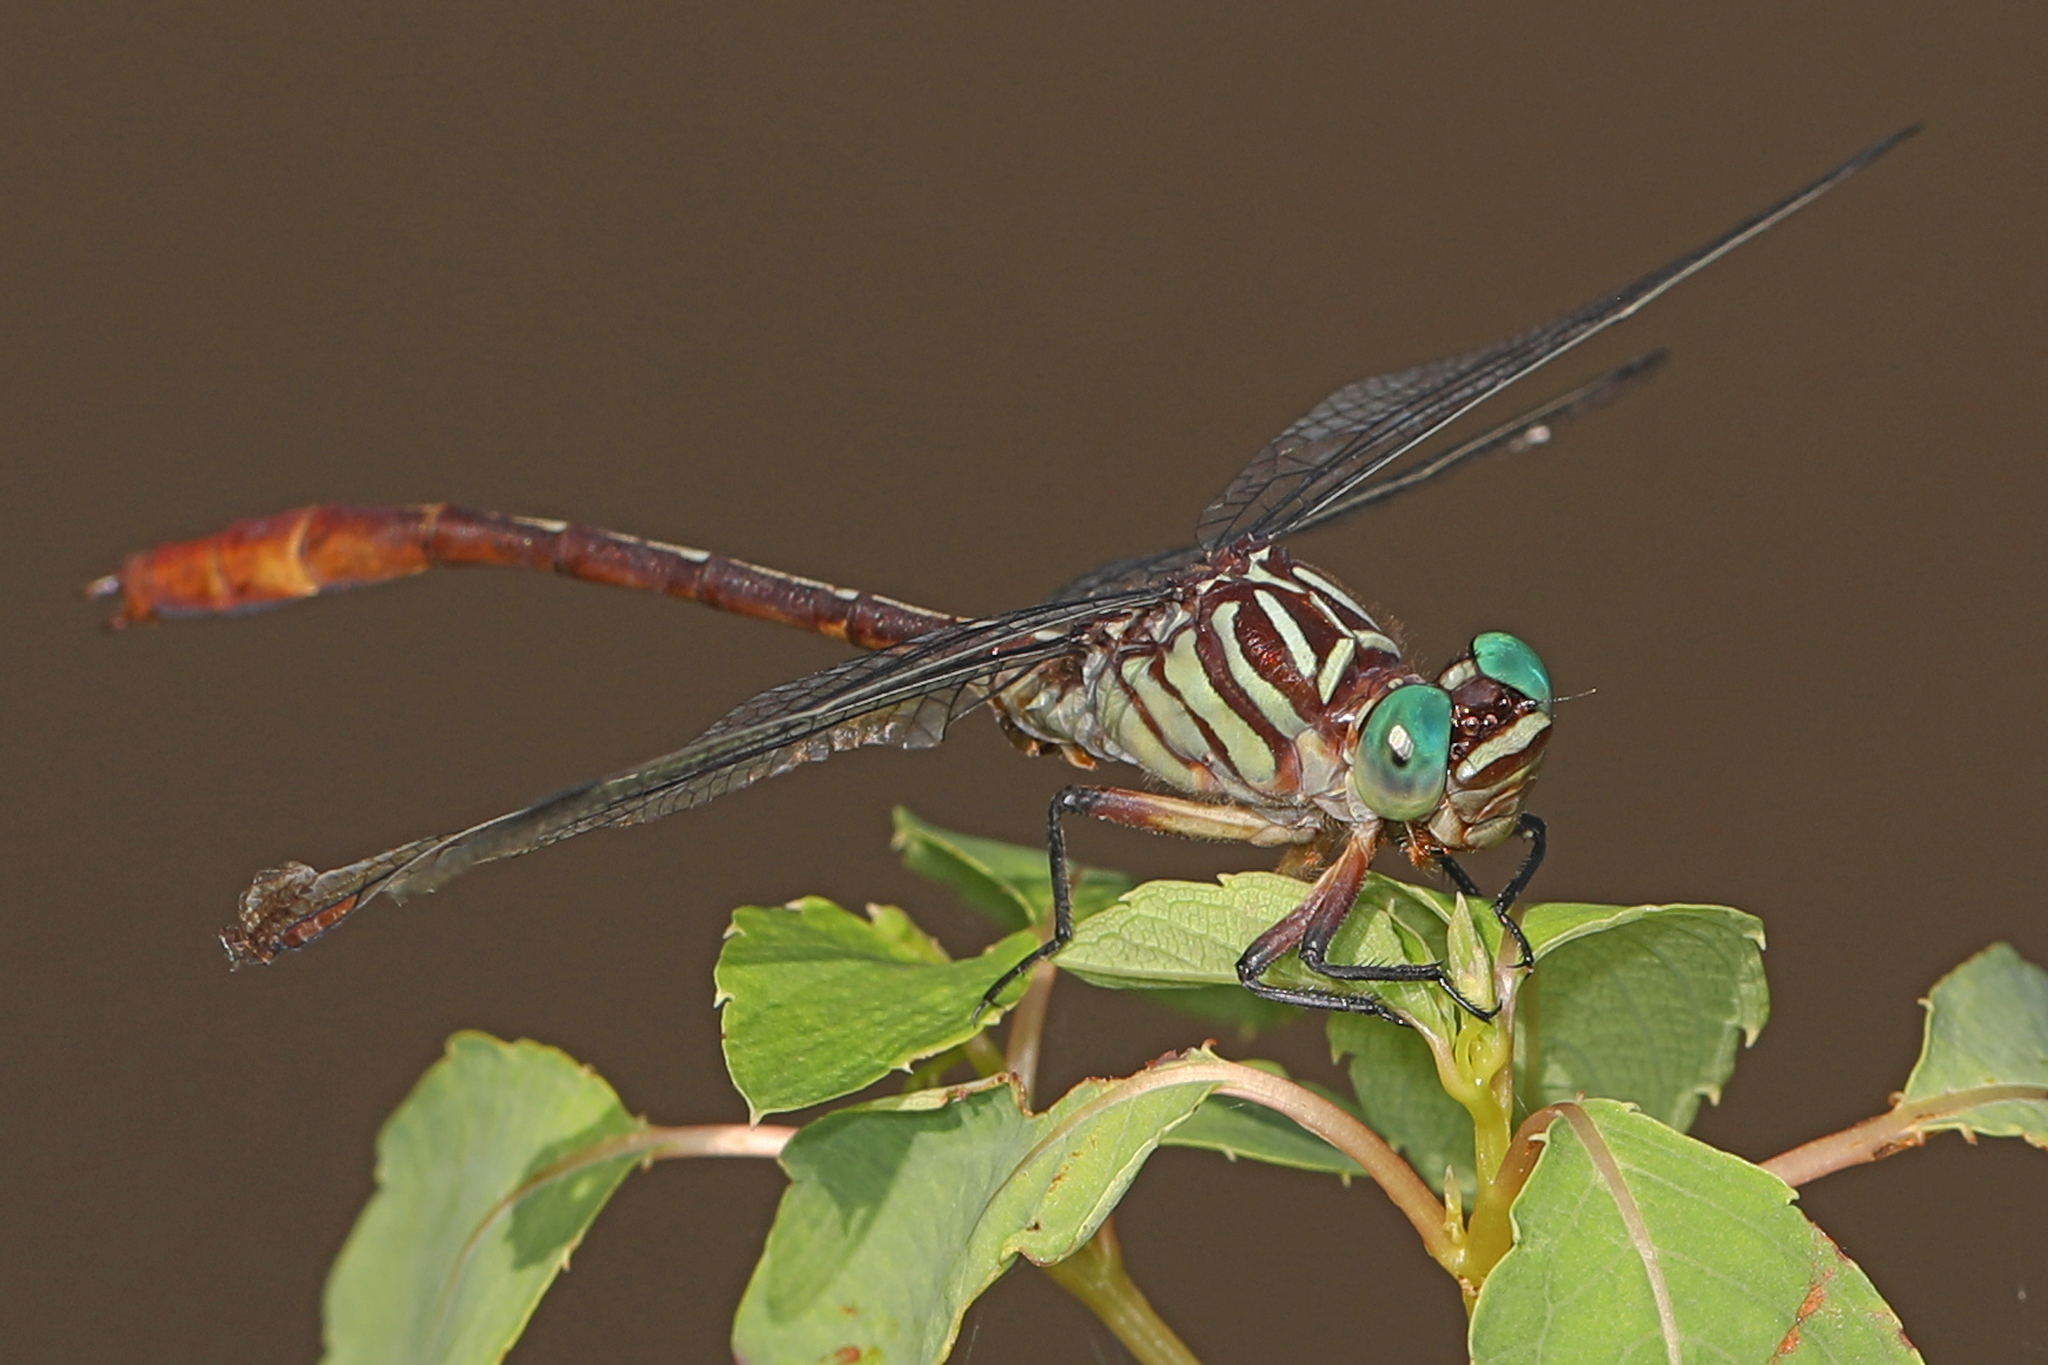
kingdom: Animalia
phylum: Arthropoda
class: Insecta
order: Odonata
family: Gomphidae
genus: Stylurus
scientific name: Stylurus plagiatus
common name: Russet-tipped clubtail
